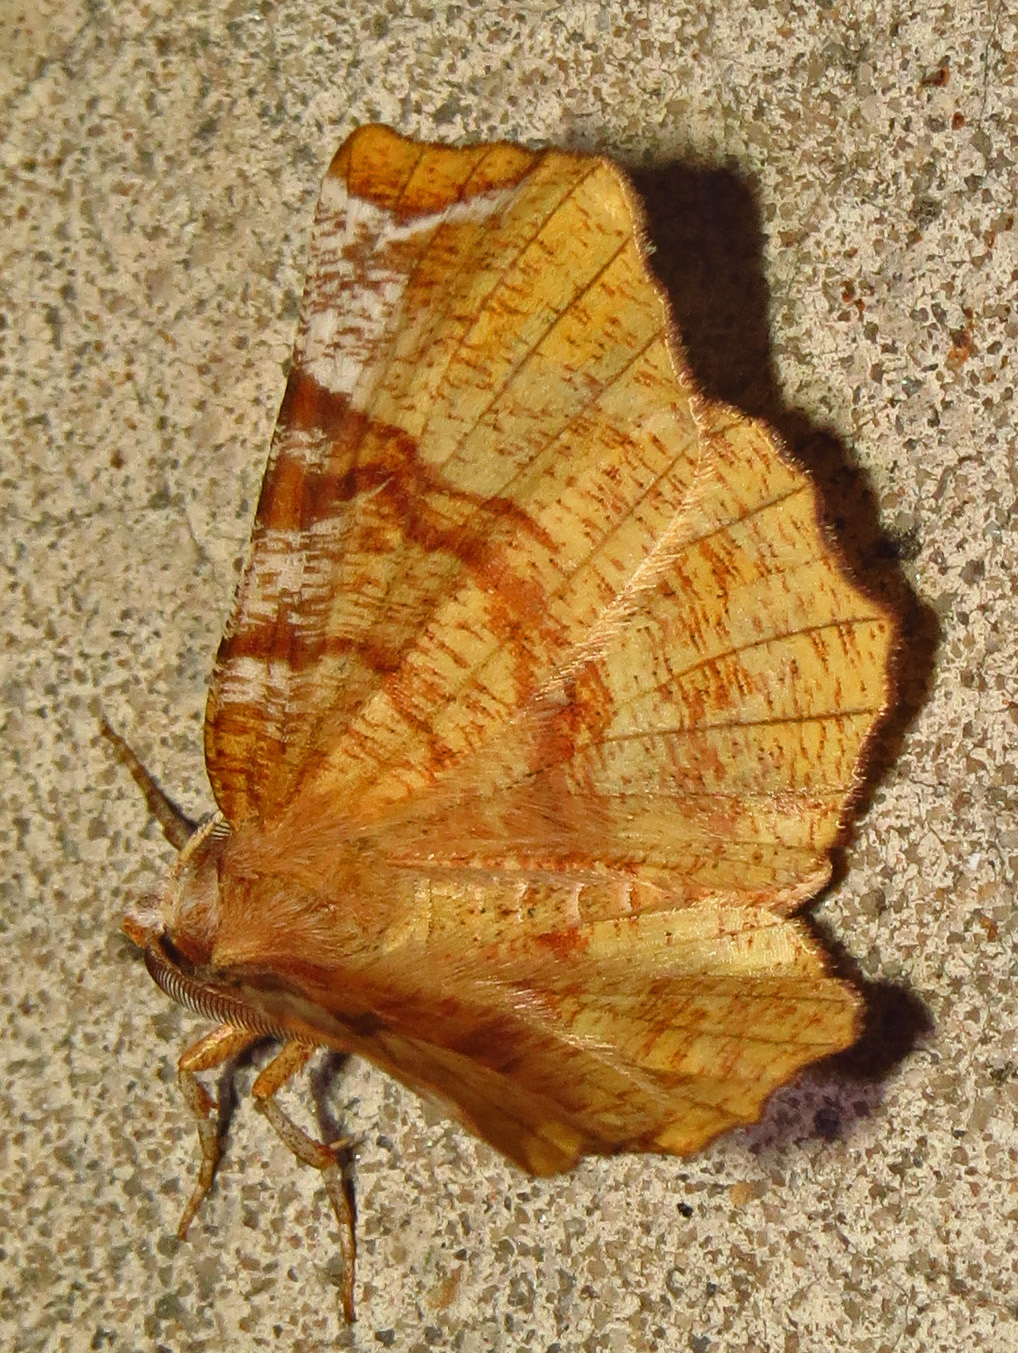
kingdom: Animalia
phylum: Arthropoda
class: Insecta
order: Lepidoptera
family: Geometridae
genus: Selenia
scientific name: Selenia kentaria
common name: Kent's geometer
